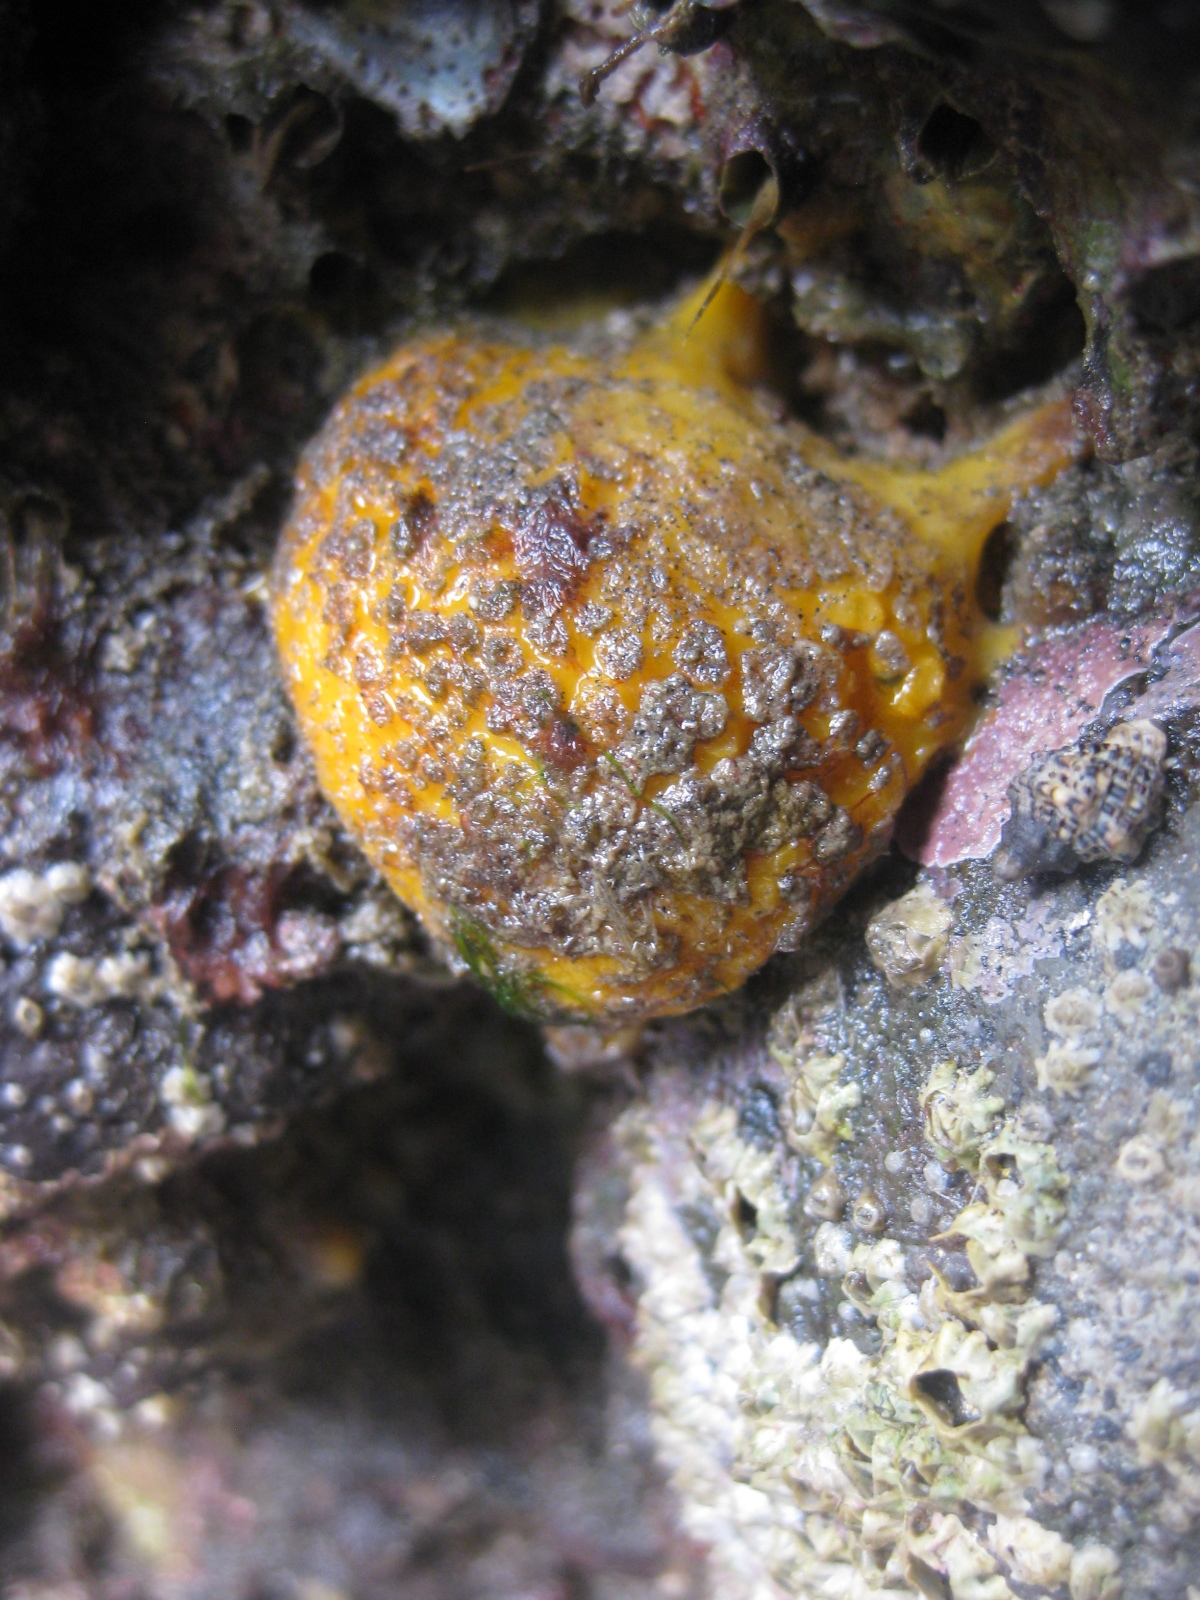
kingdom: Animalia
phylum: Porifera
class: Demospongiae
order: Tethyida
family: Tethyidae
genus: Tethya
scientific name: Tethya burtoni
